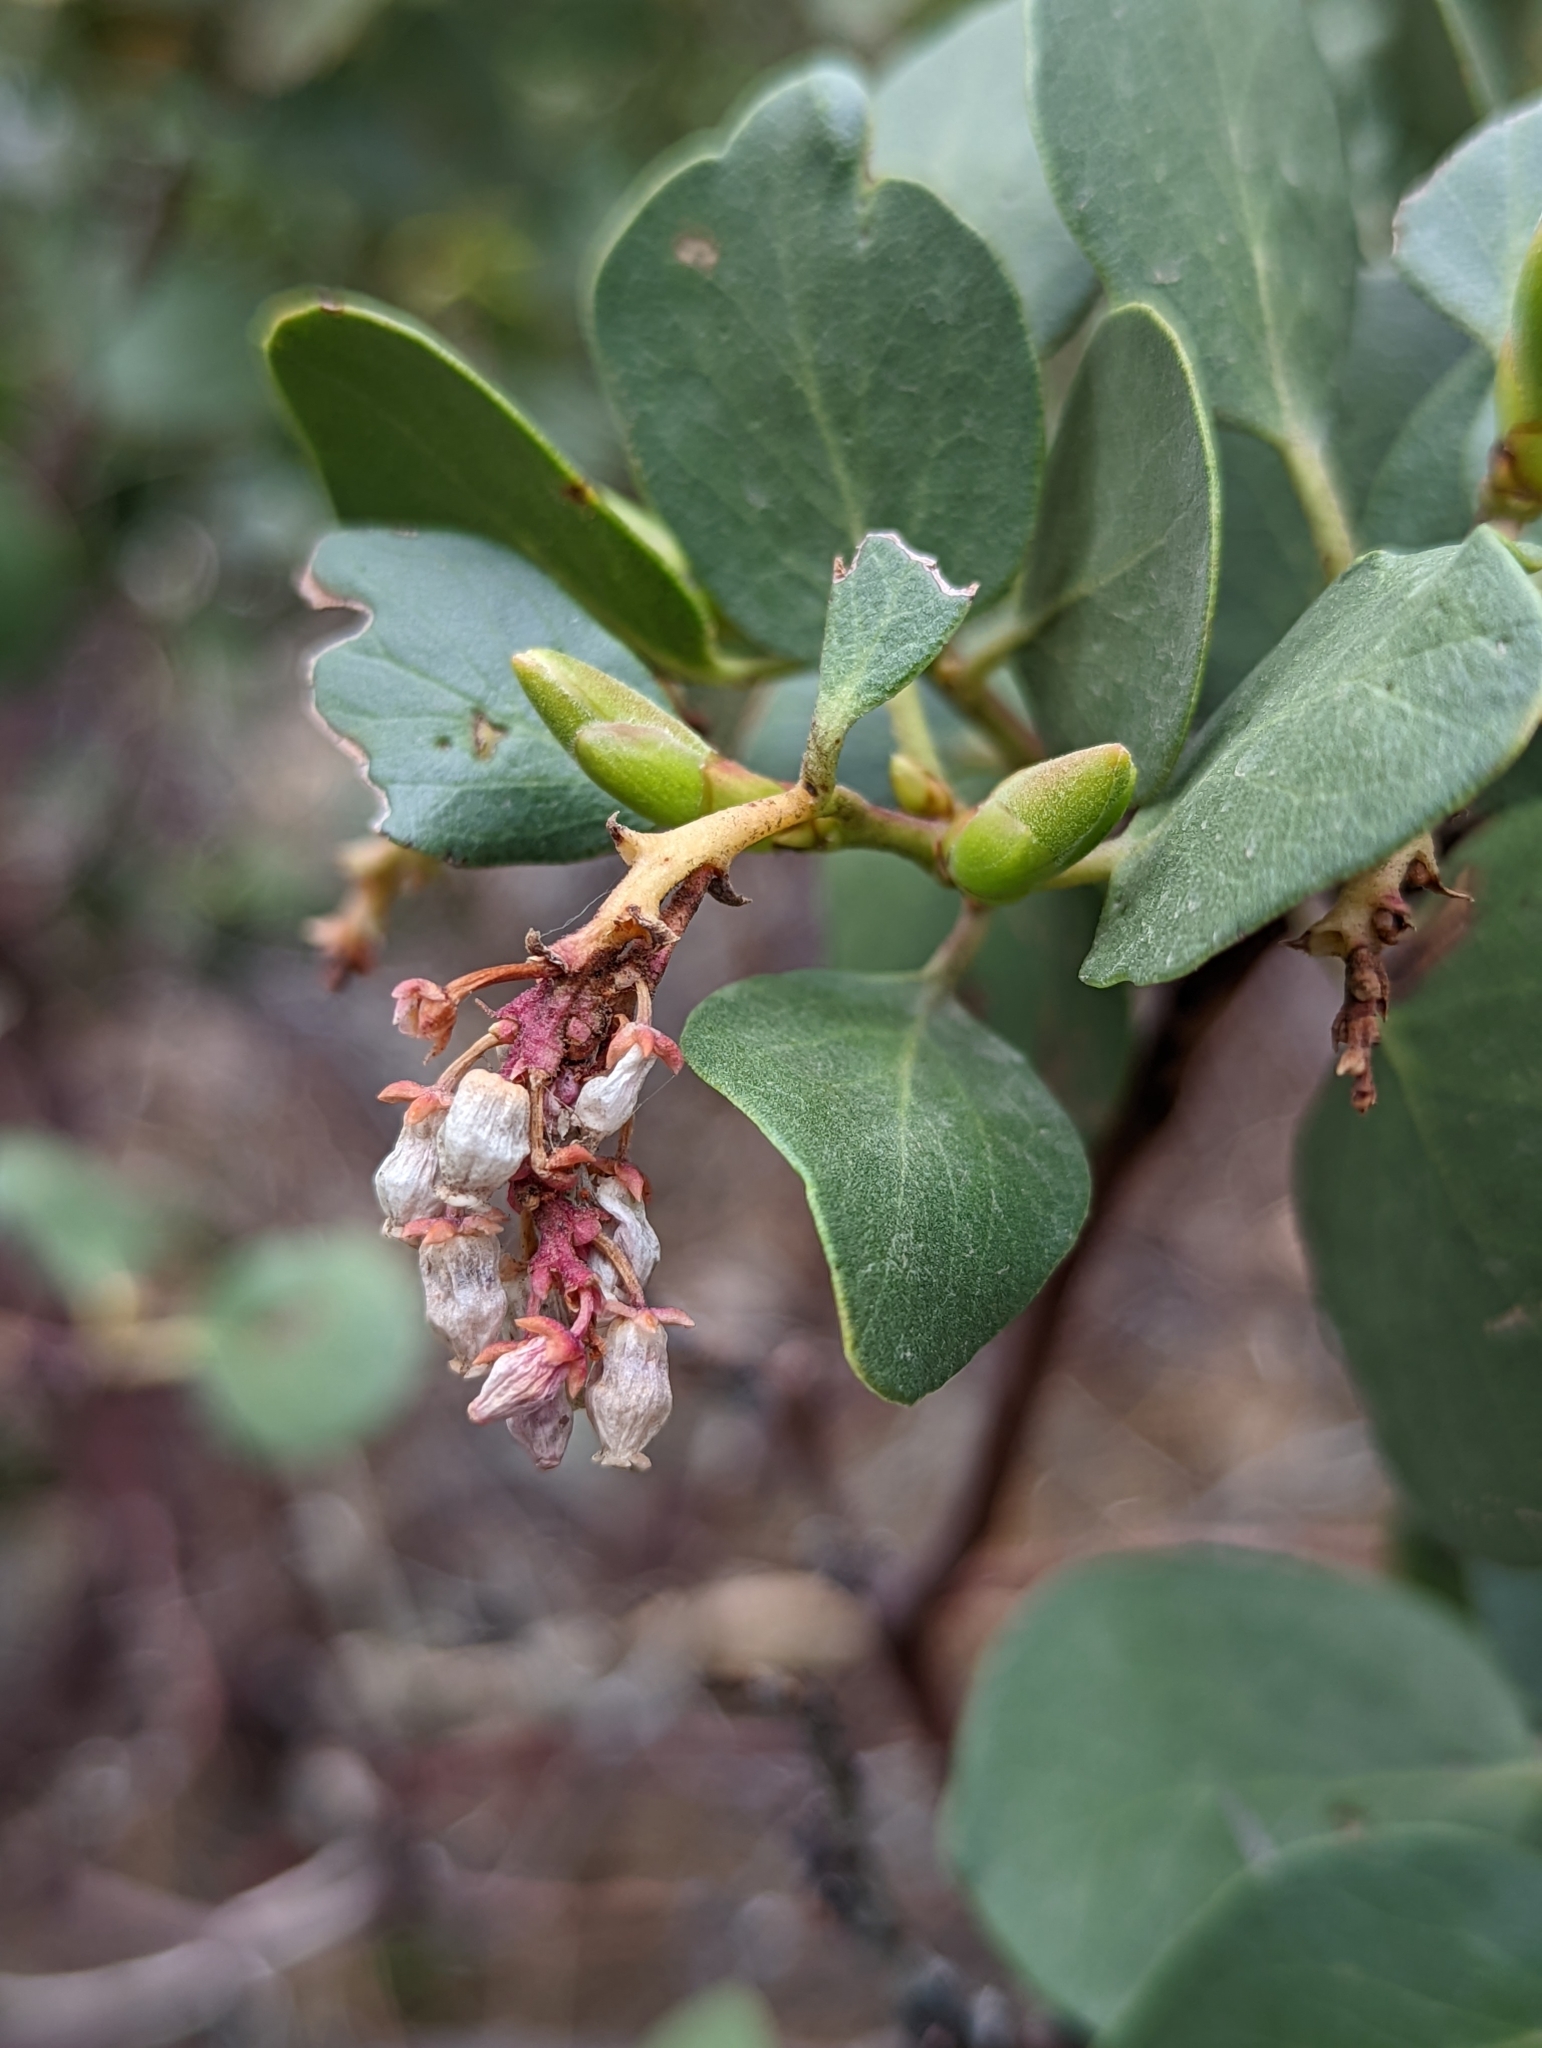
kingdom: Plantae
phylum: Tracheophyta
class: Magnoliopsida
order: Ericales
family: Ericaceae
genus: Arctostaphylos
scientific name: Arctostaphylos patula
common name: Green-leaf manzanita
